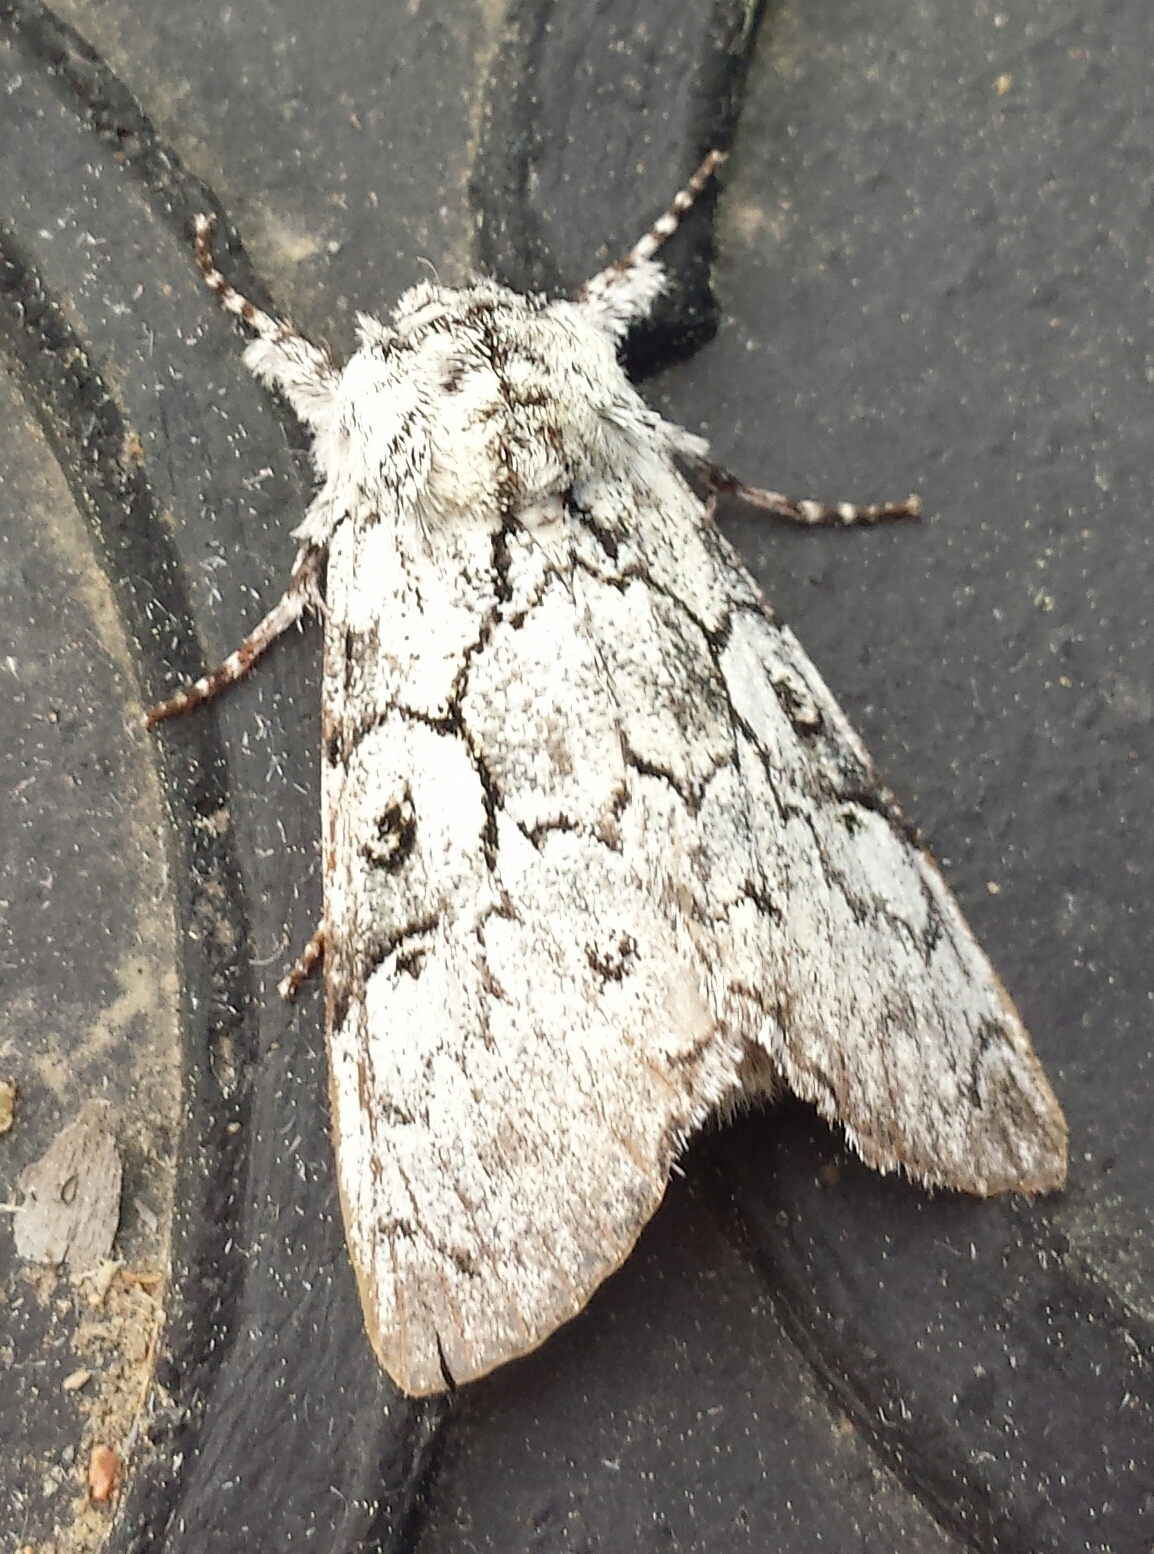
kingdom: Animalia
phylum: Arthropoda
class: Insecta
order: Lepidoptera
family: Noctuidae
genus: Charadra
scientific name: Charadra deridens
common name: Marbled tuffet
